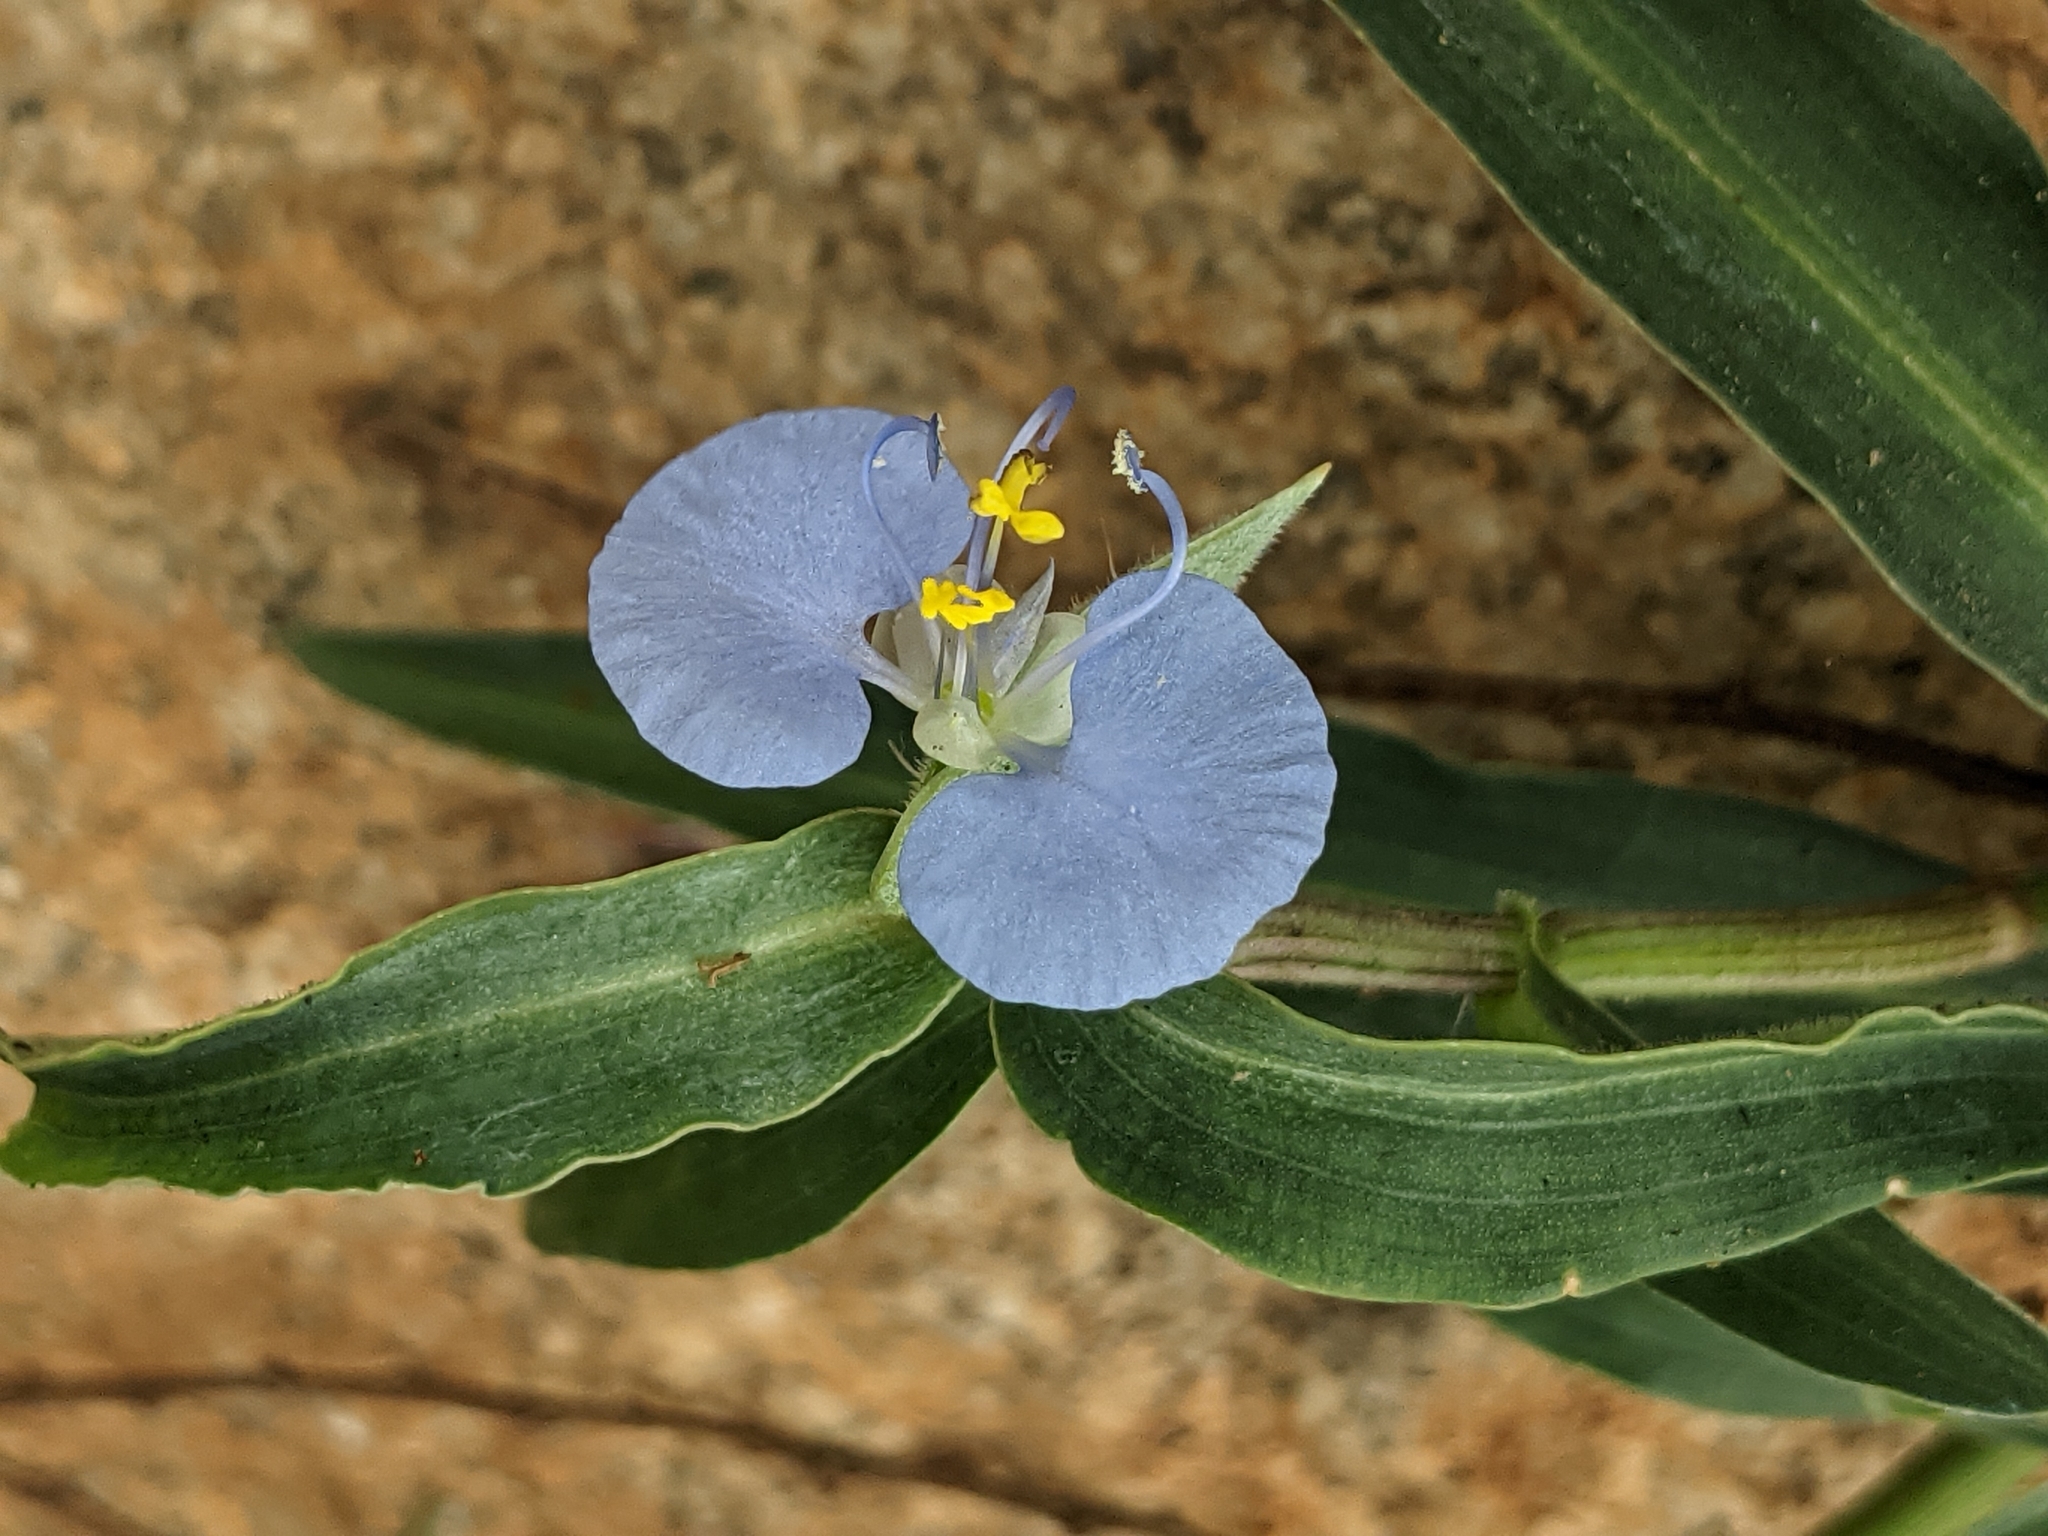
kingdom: Plantae
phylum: Tracheophyta
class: Liliopsida
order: Commelinales
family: Commelinaceae
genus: Commelina
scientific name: Commelina ensifolia
